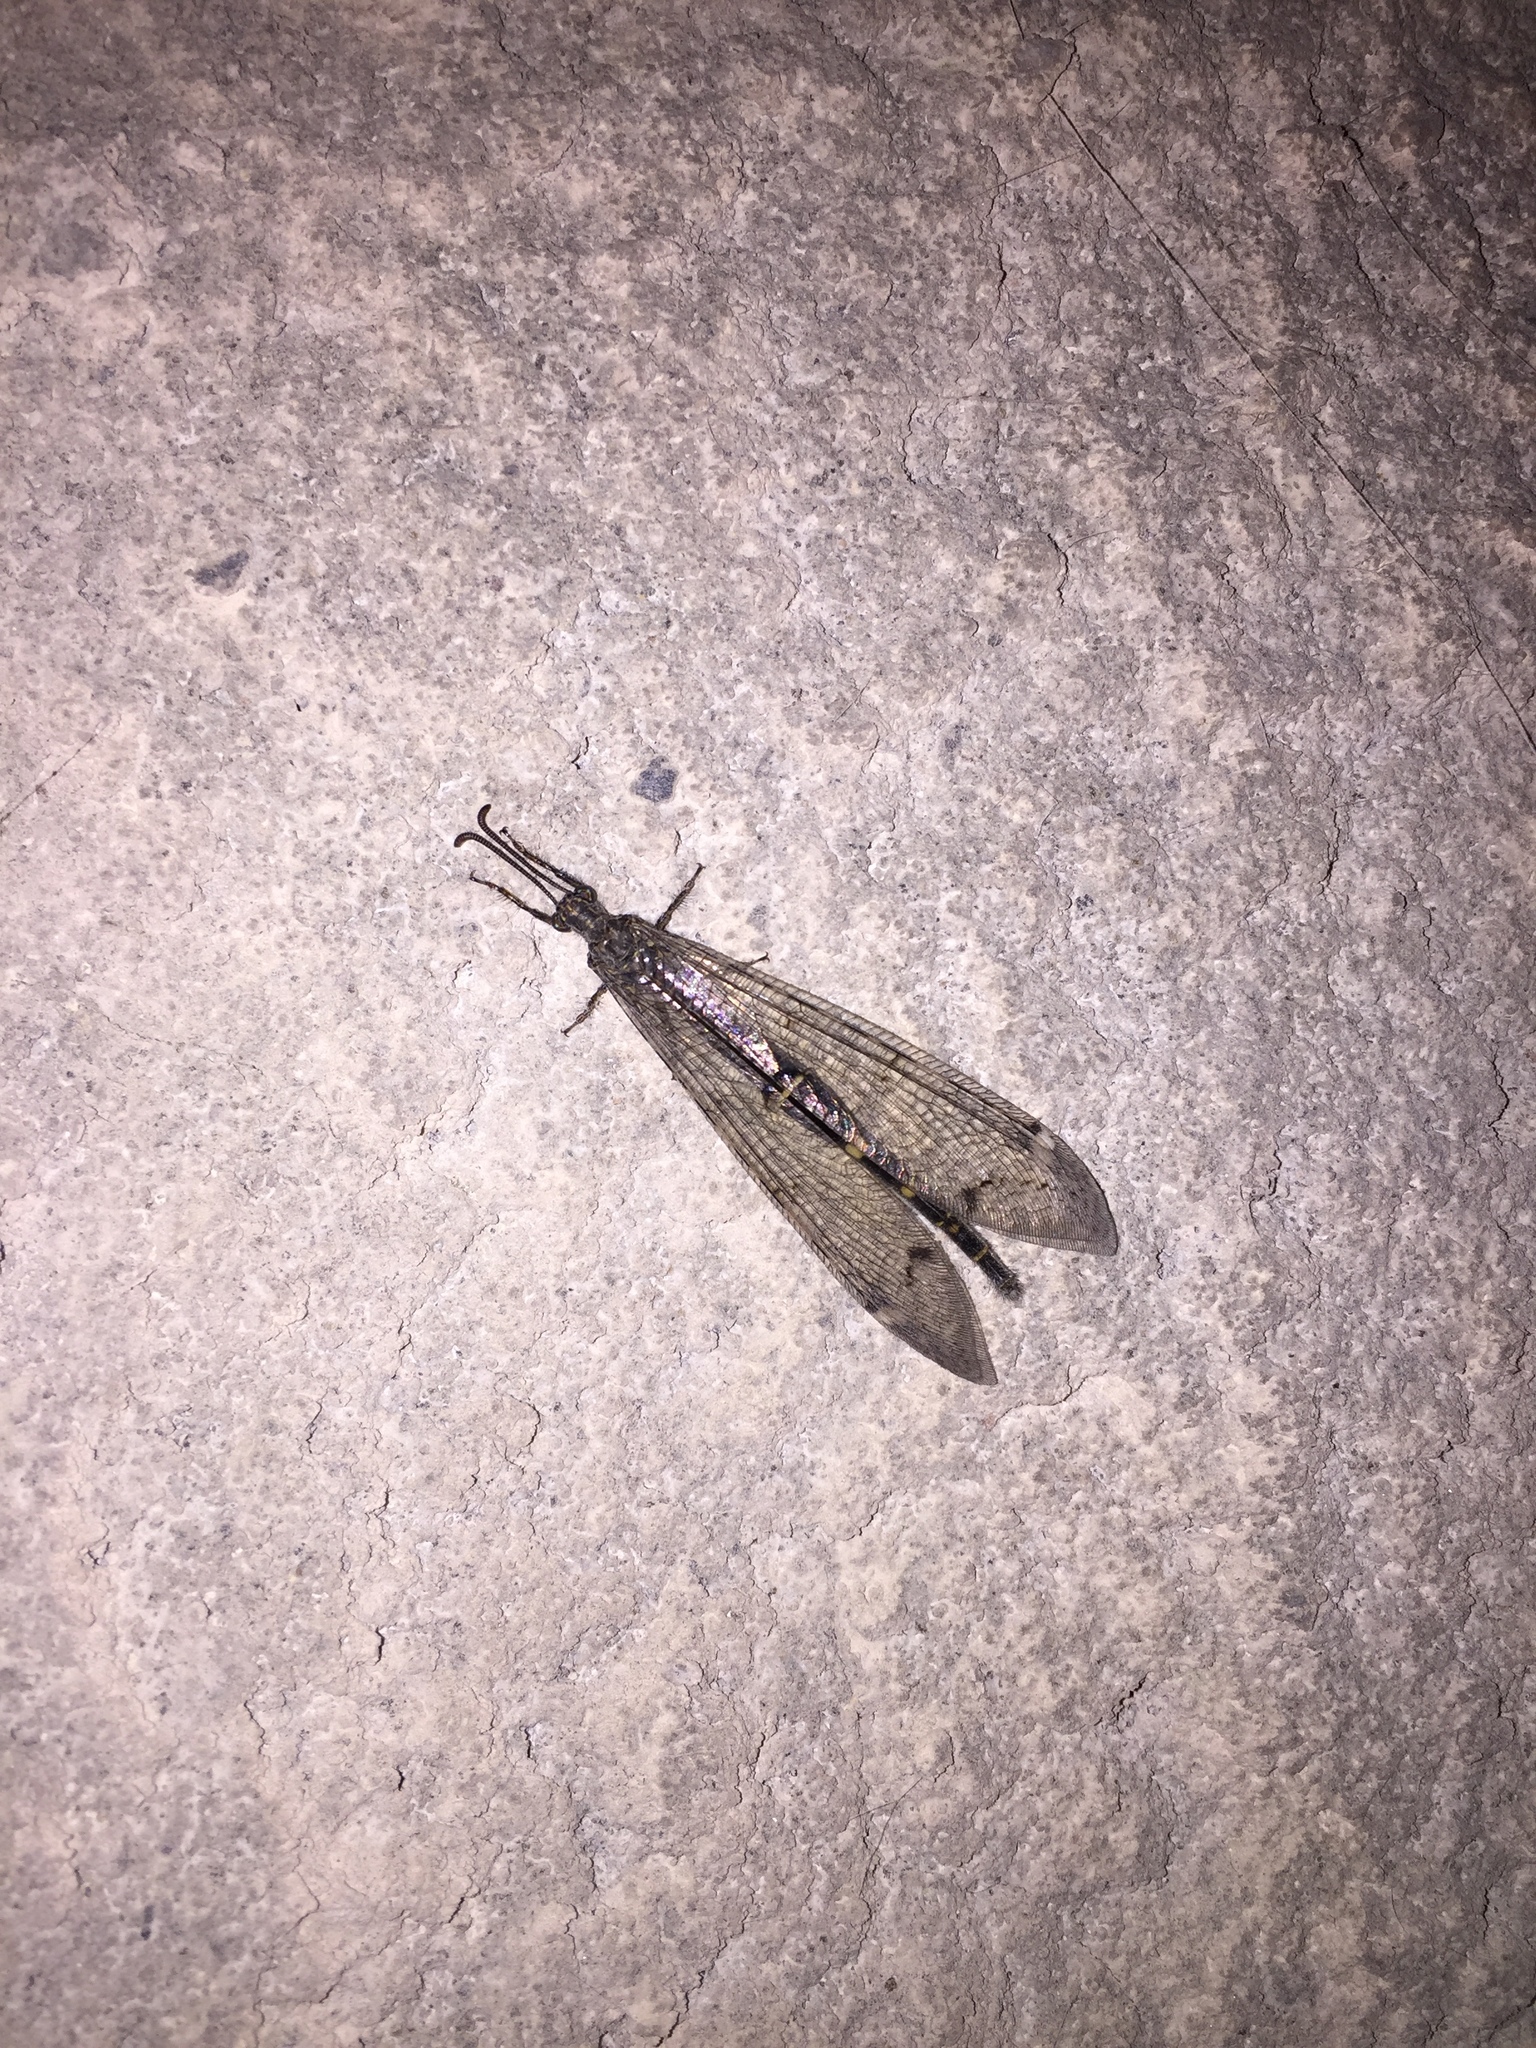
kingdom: Animalia
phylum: Arthropoda
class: Insecta
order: Neuroptera
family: Myrmeleontidae
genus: Distoleon
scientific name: Distoleon tetragrammicus
